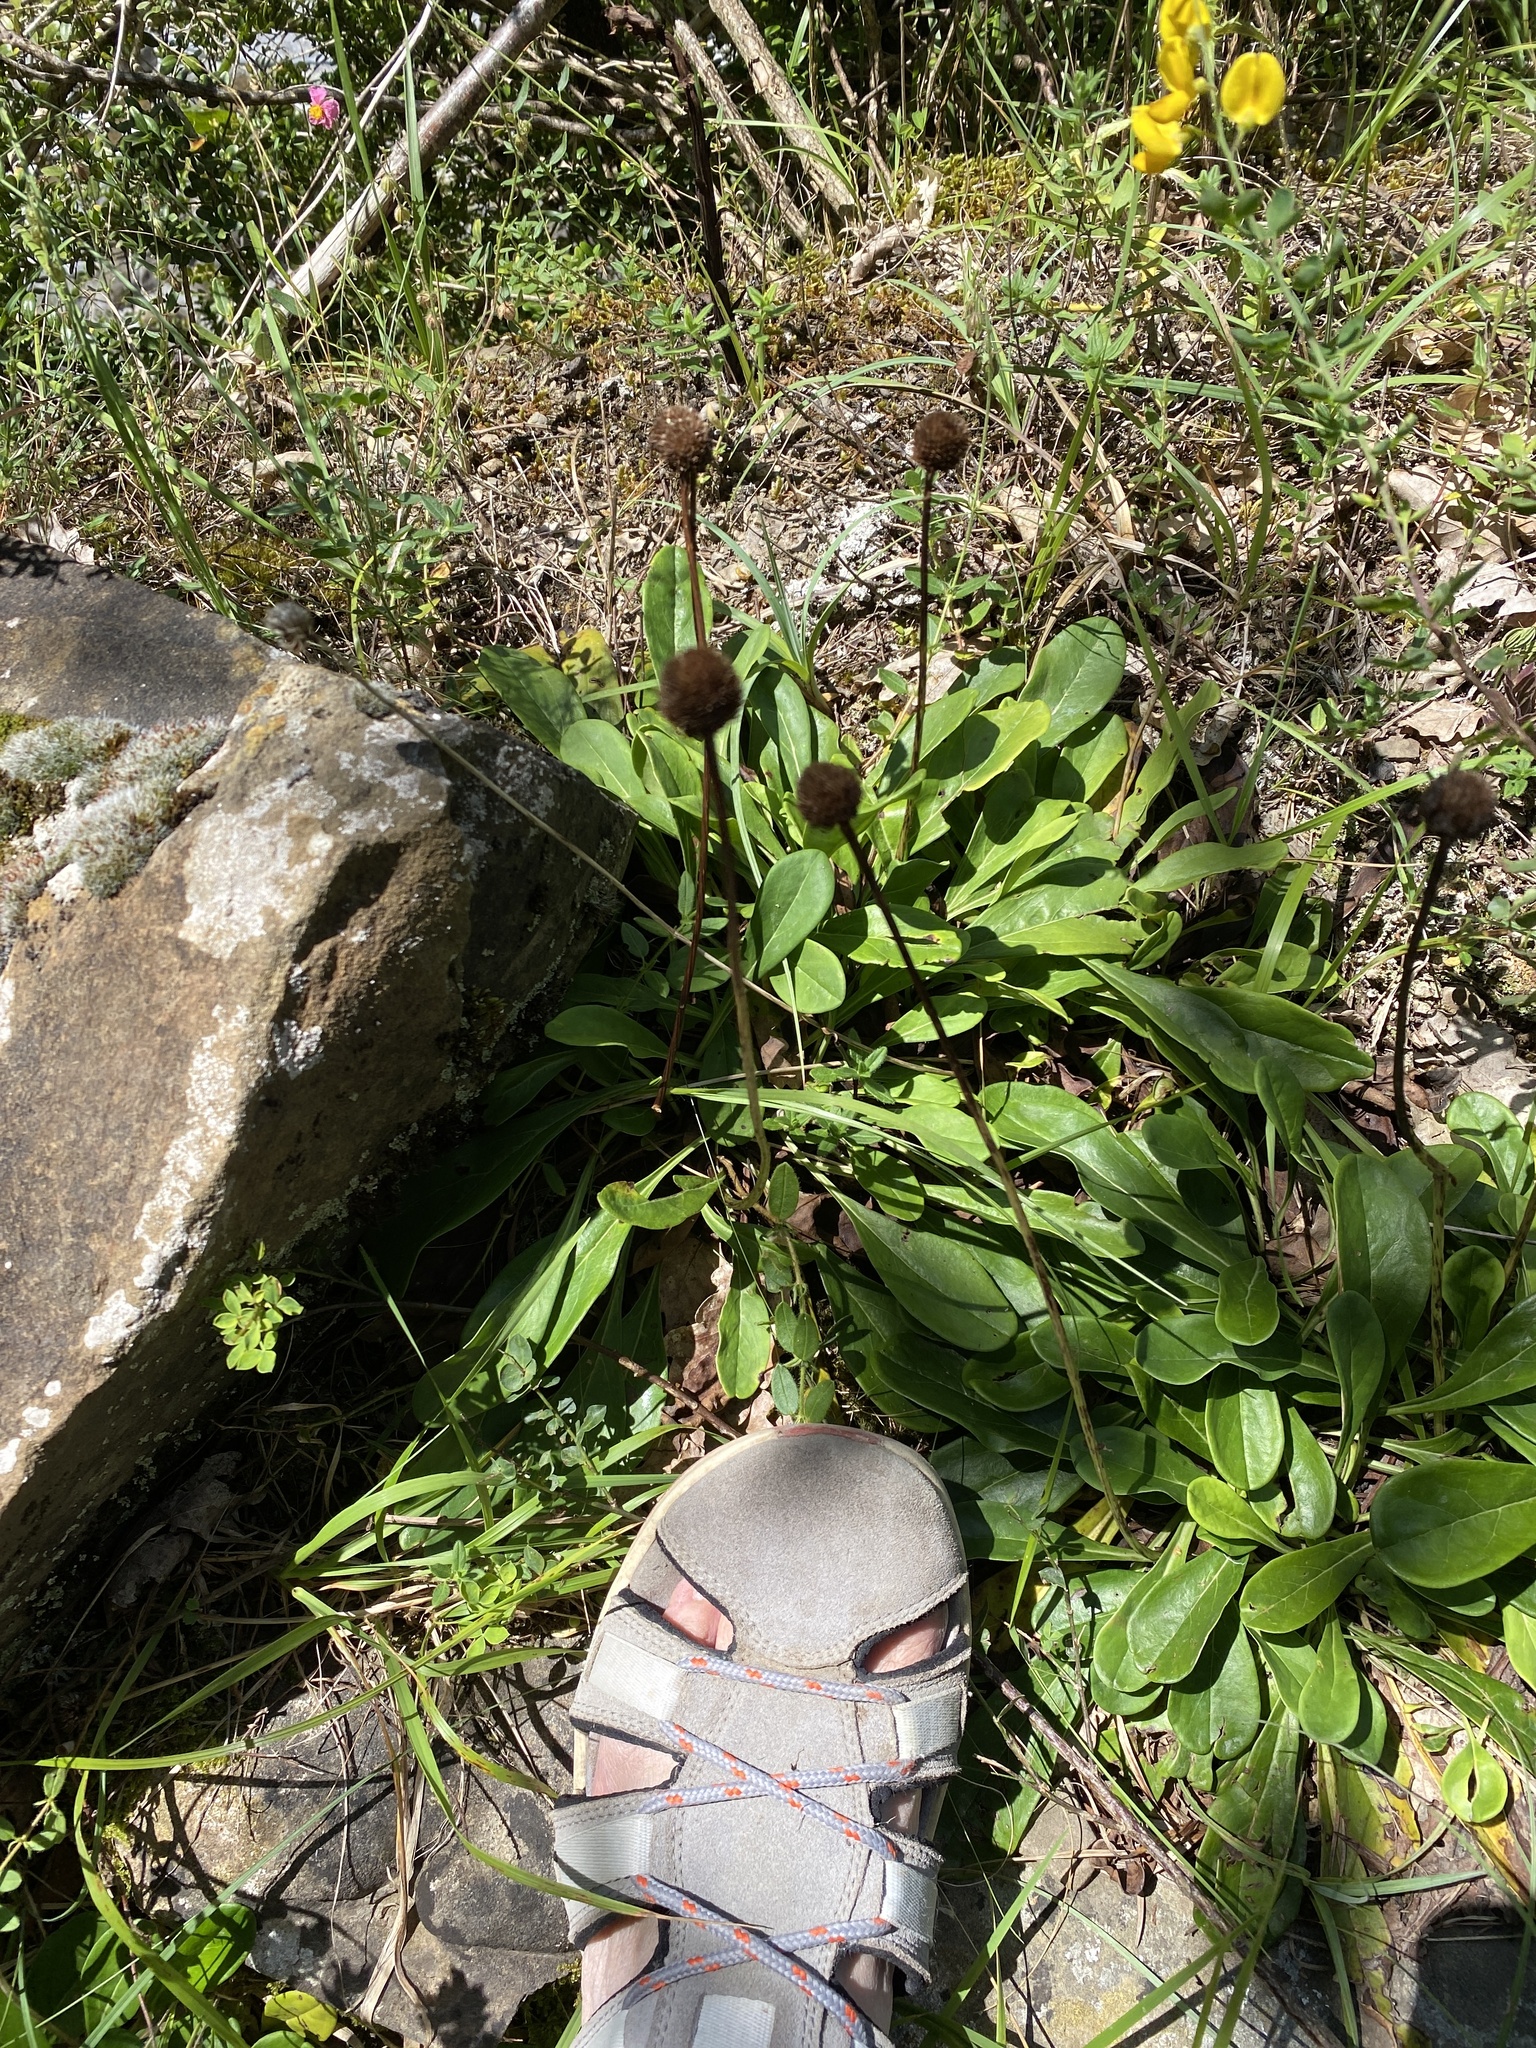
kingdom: Plantae
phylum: Tracheophyta
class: Magnoliopsida
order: Lamiales
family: Plantaginaceae
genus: Globularia
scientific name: Globularia nudicaulis
